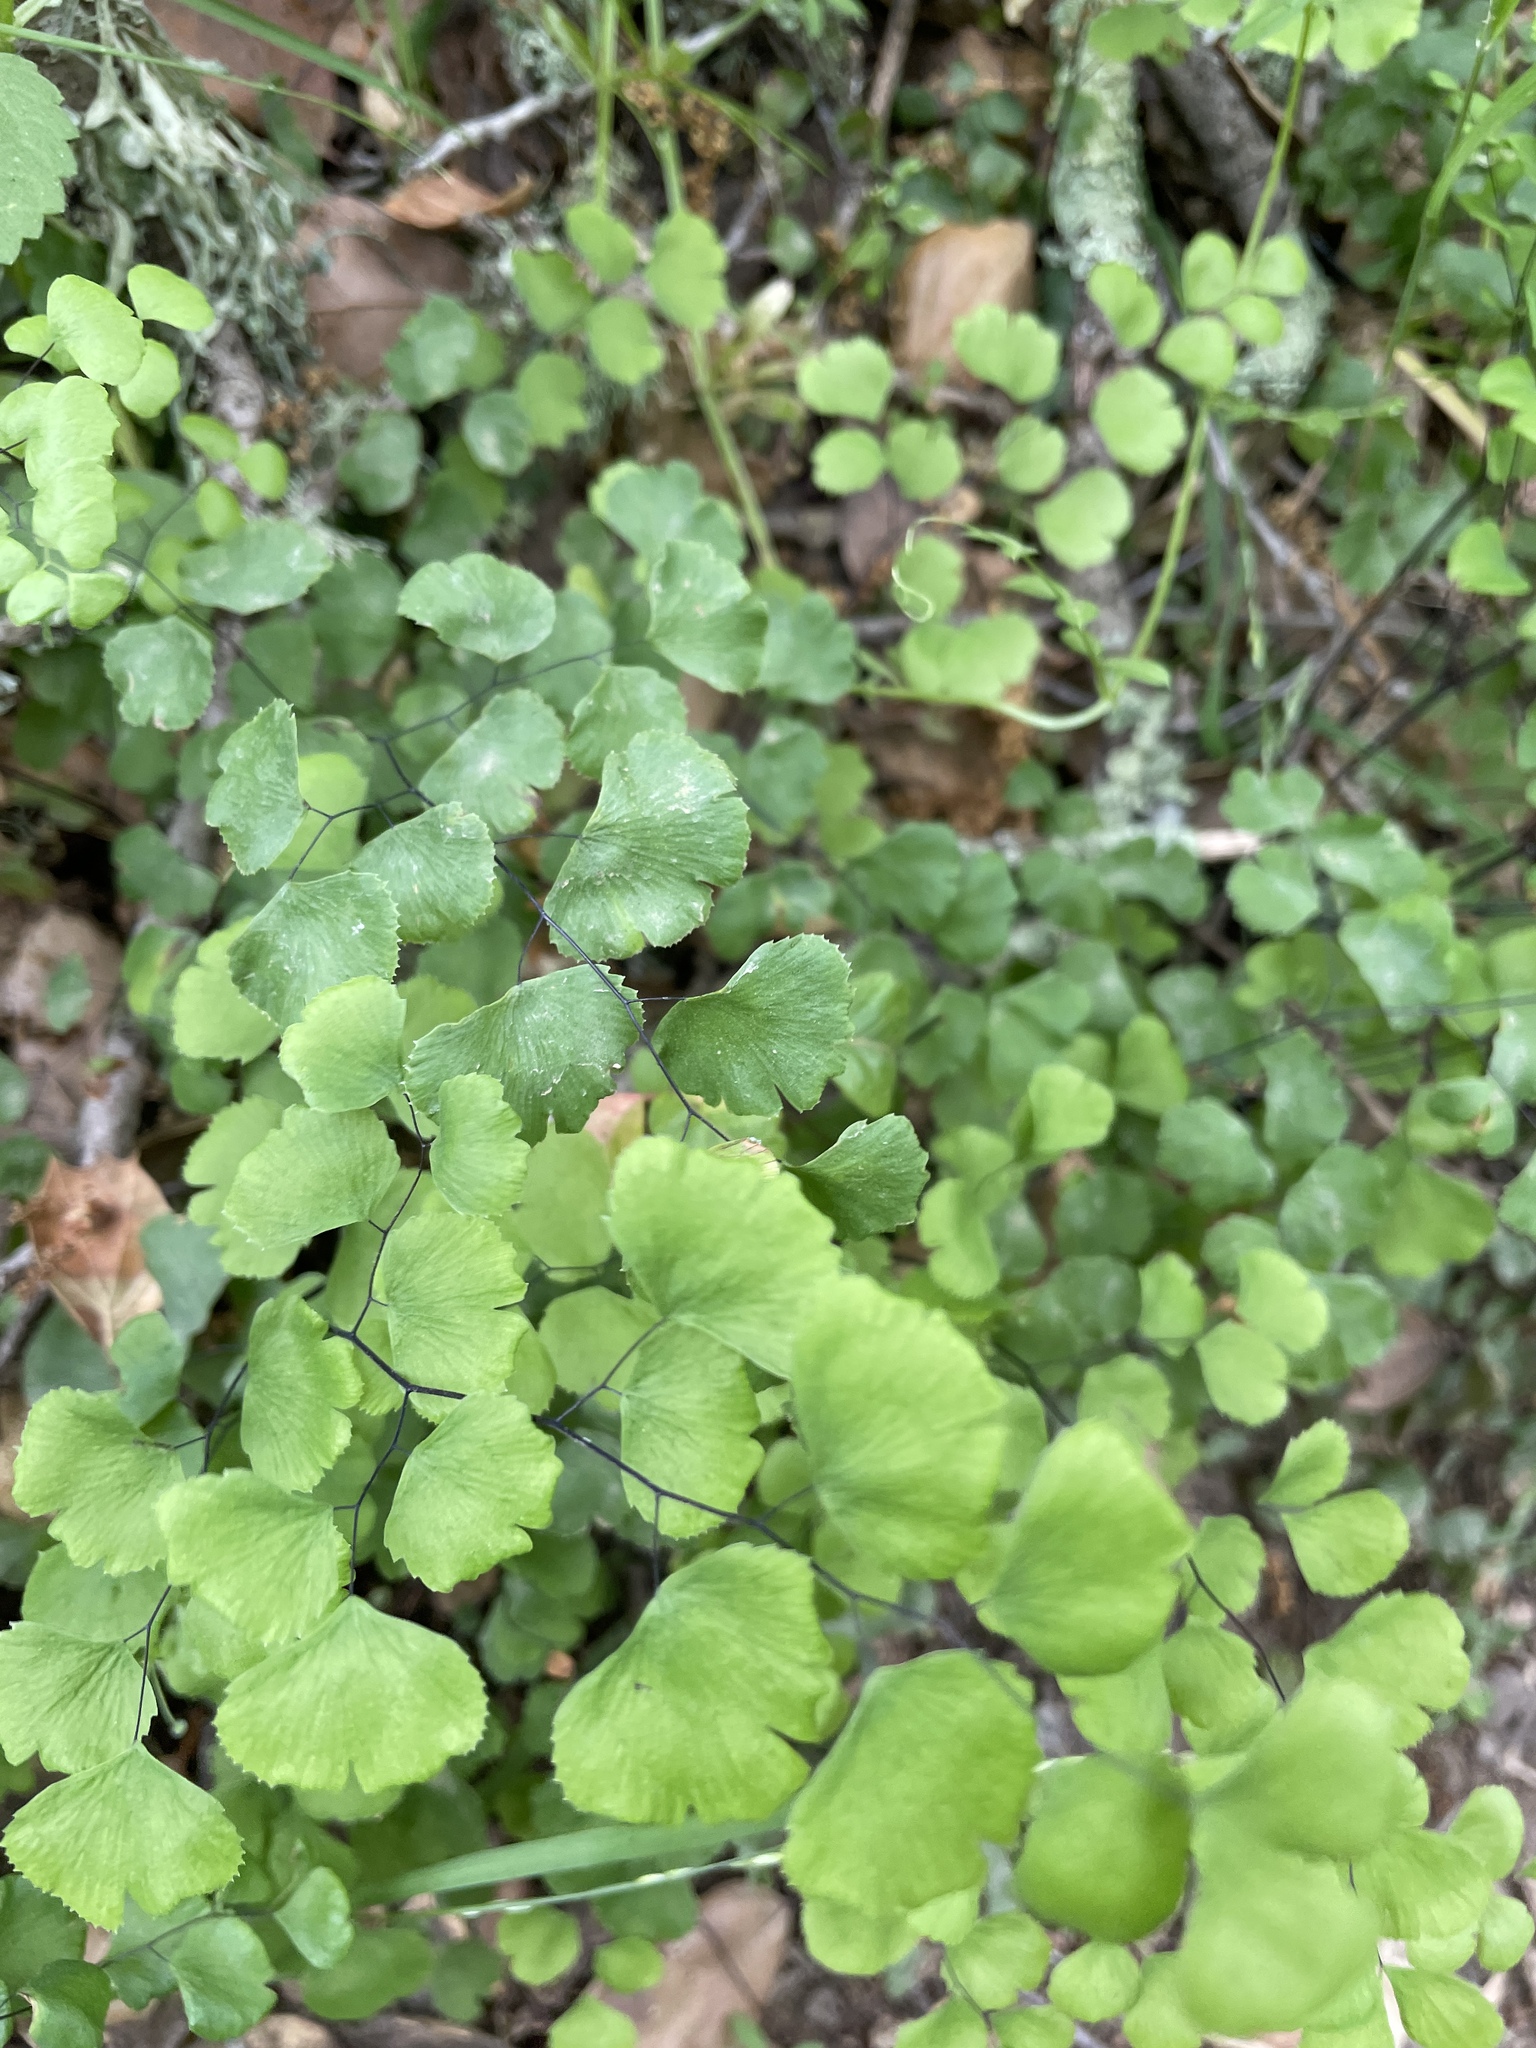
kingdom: Plantae
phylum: Tracheophyta
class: Polypodiopsida
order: Polypodiales
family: Pteridaceae
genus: Adiantum
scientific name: Adiantum jordanii
